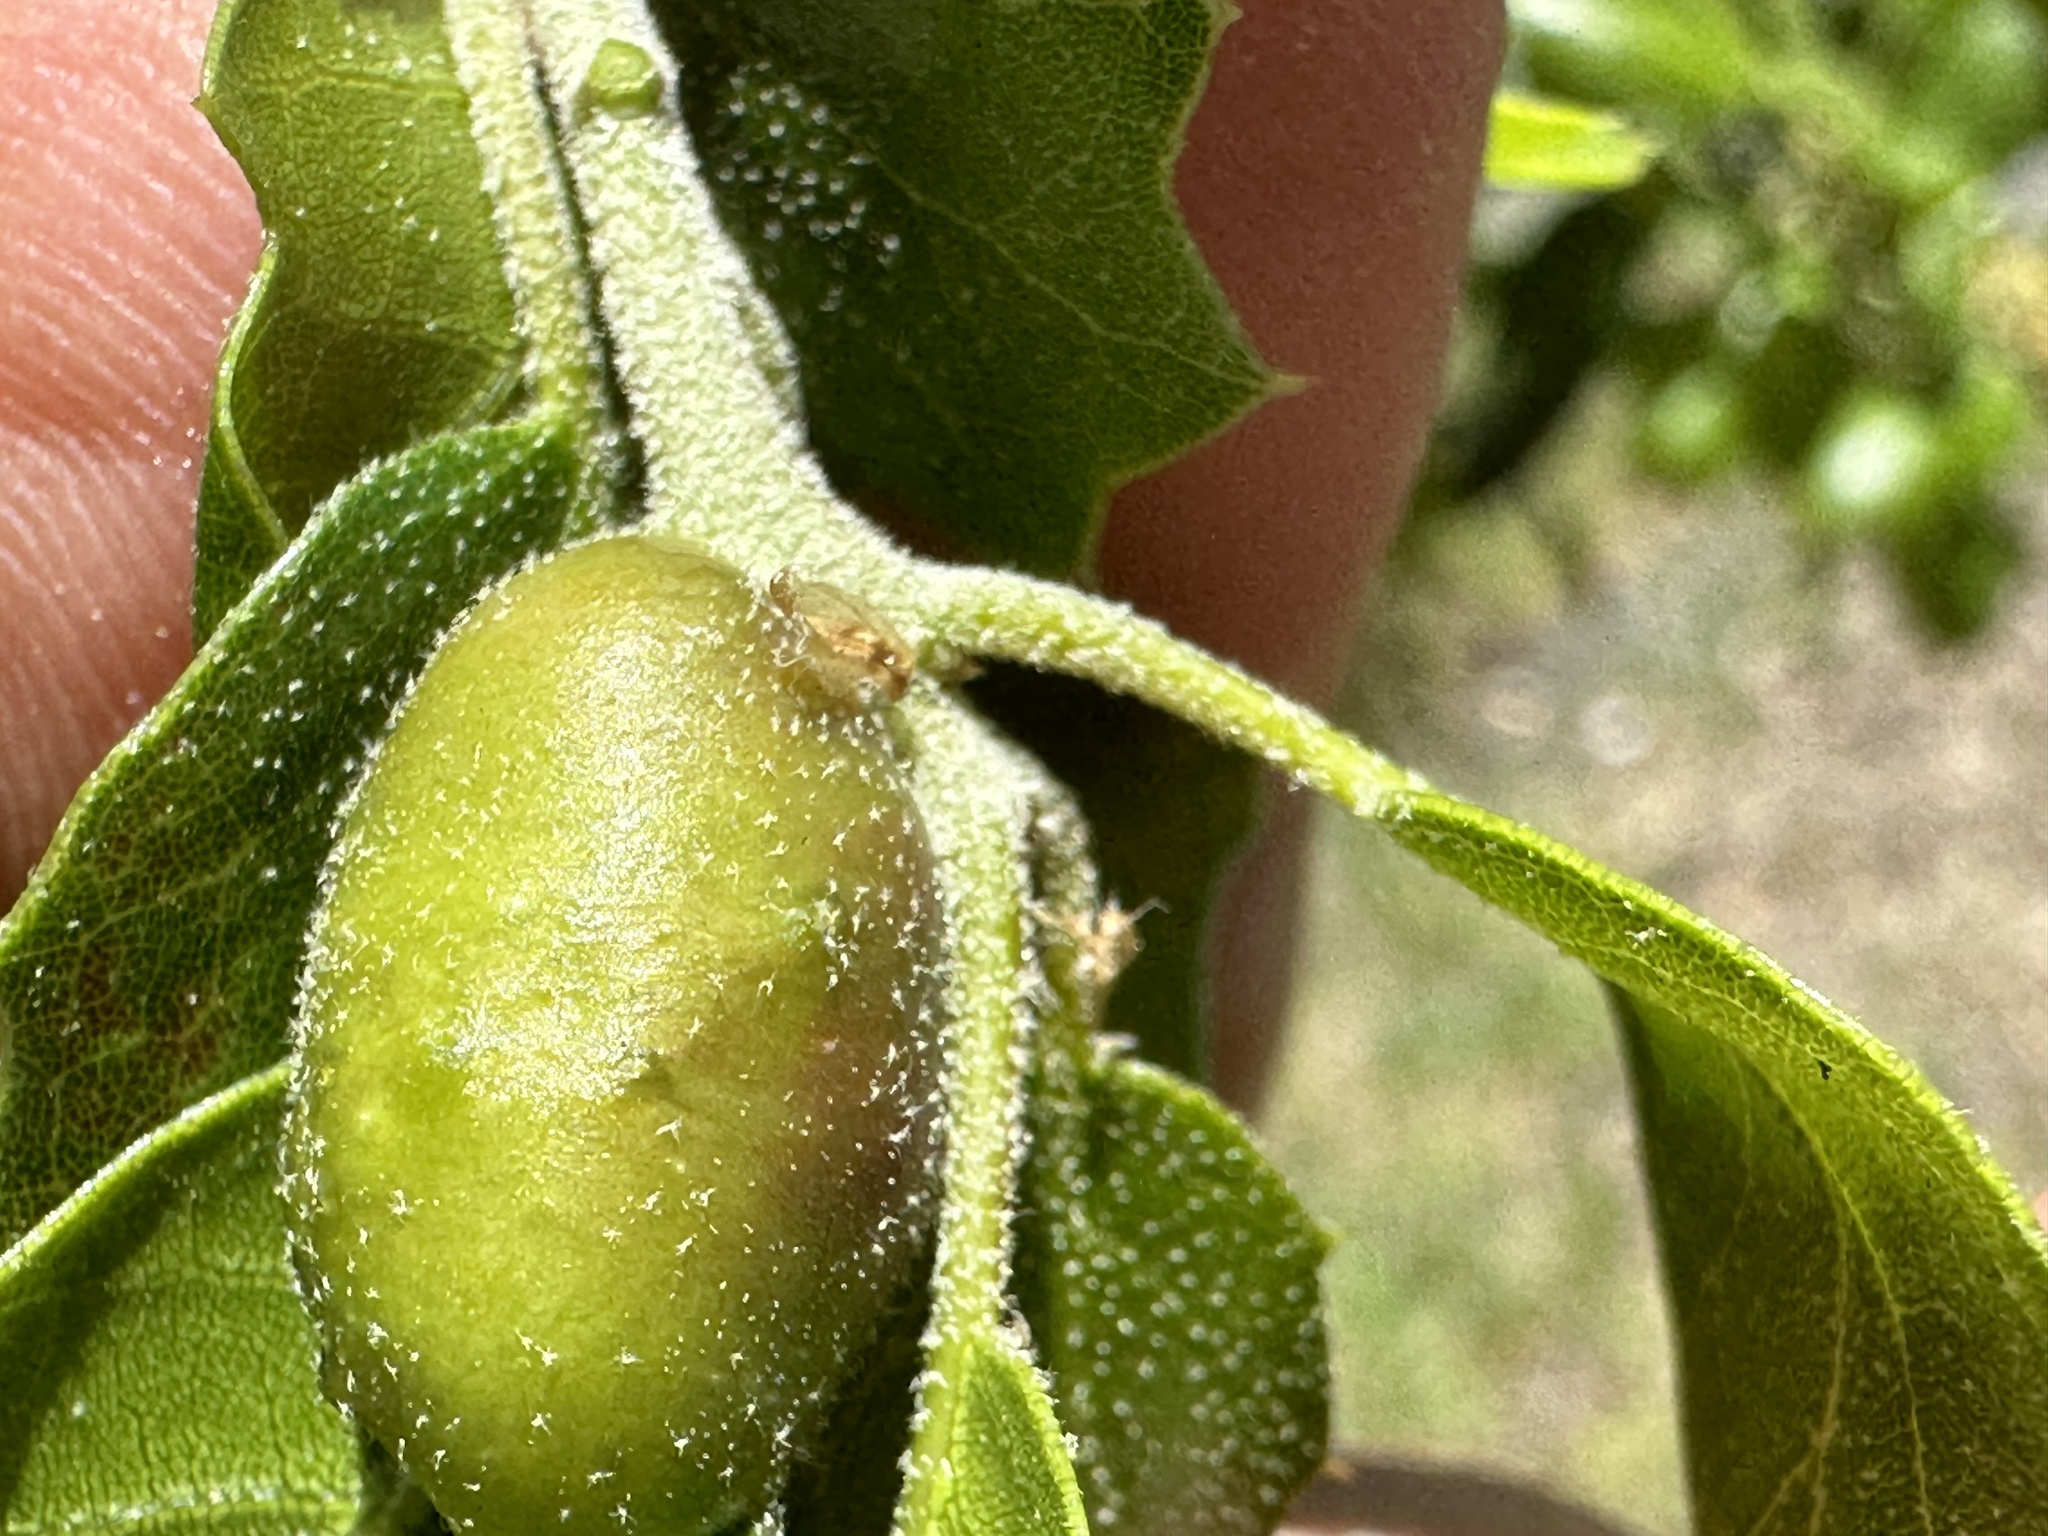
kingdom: Animalia
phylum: Arthropoda
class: Insecta
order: Hymenoptera
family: Cynipidae
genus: Melikaiella
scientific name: Melikaiella
